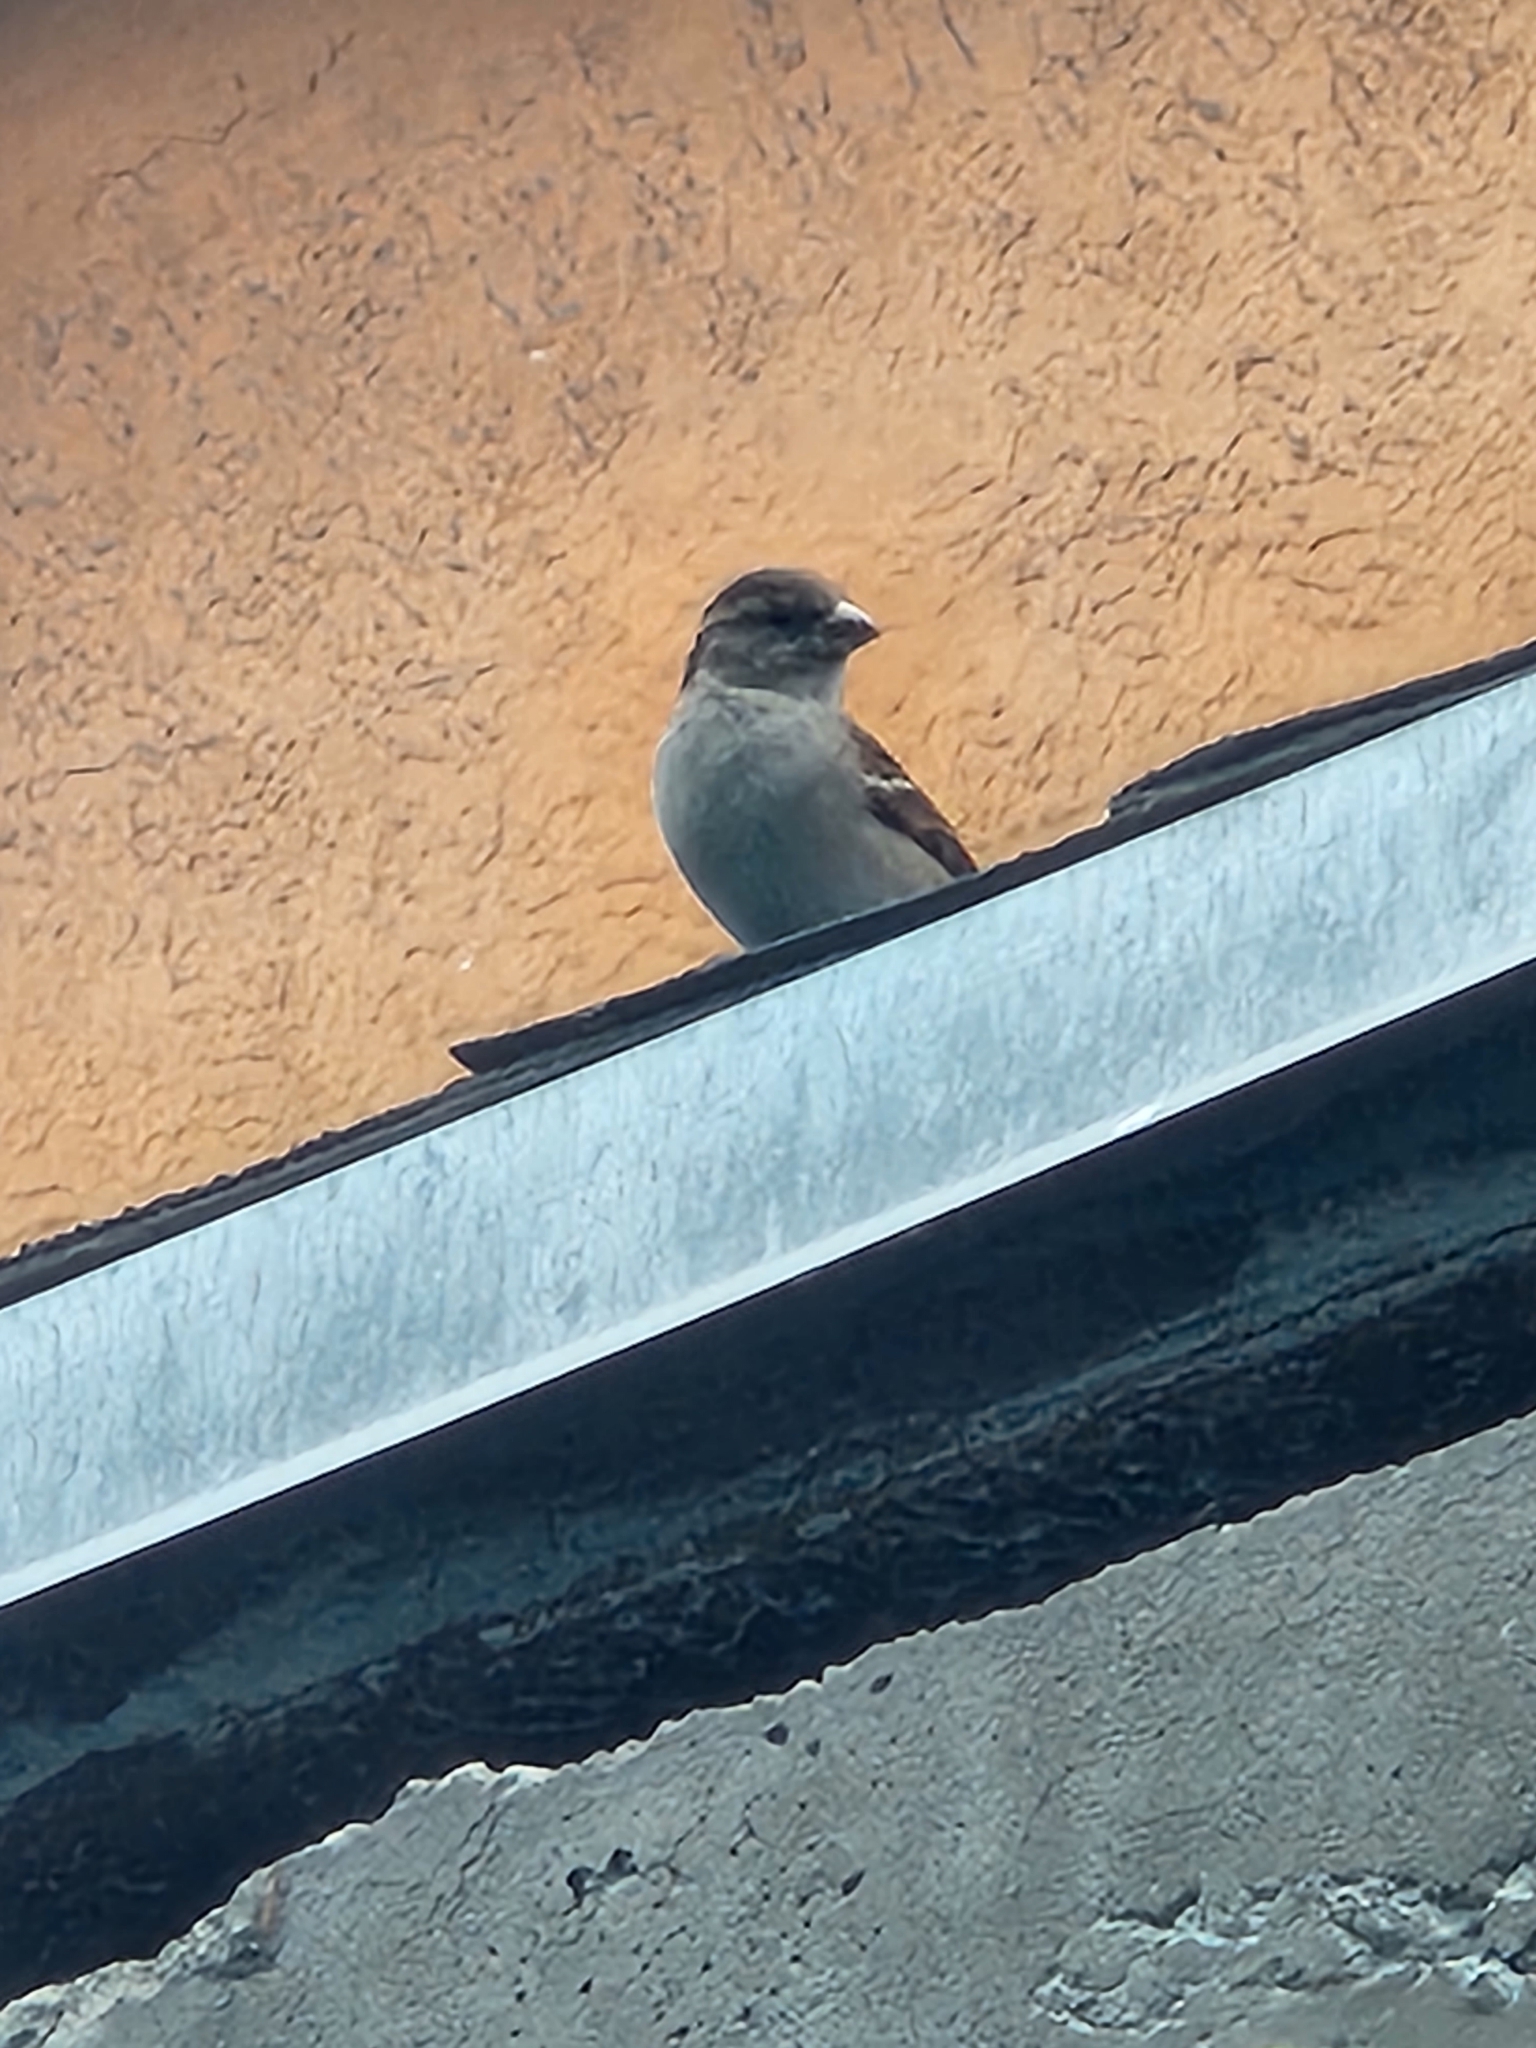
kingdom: Animalia
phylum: Chordata
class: Aves
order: Passeriformes
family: Passeridae
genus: Passer
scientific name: Passer domesticus
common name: House sparrow
